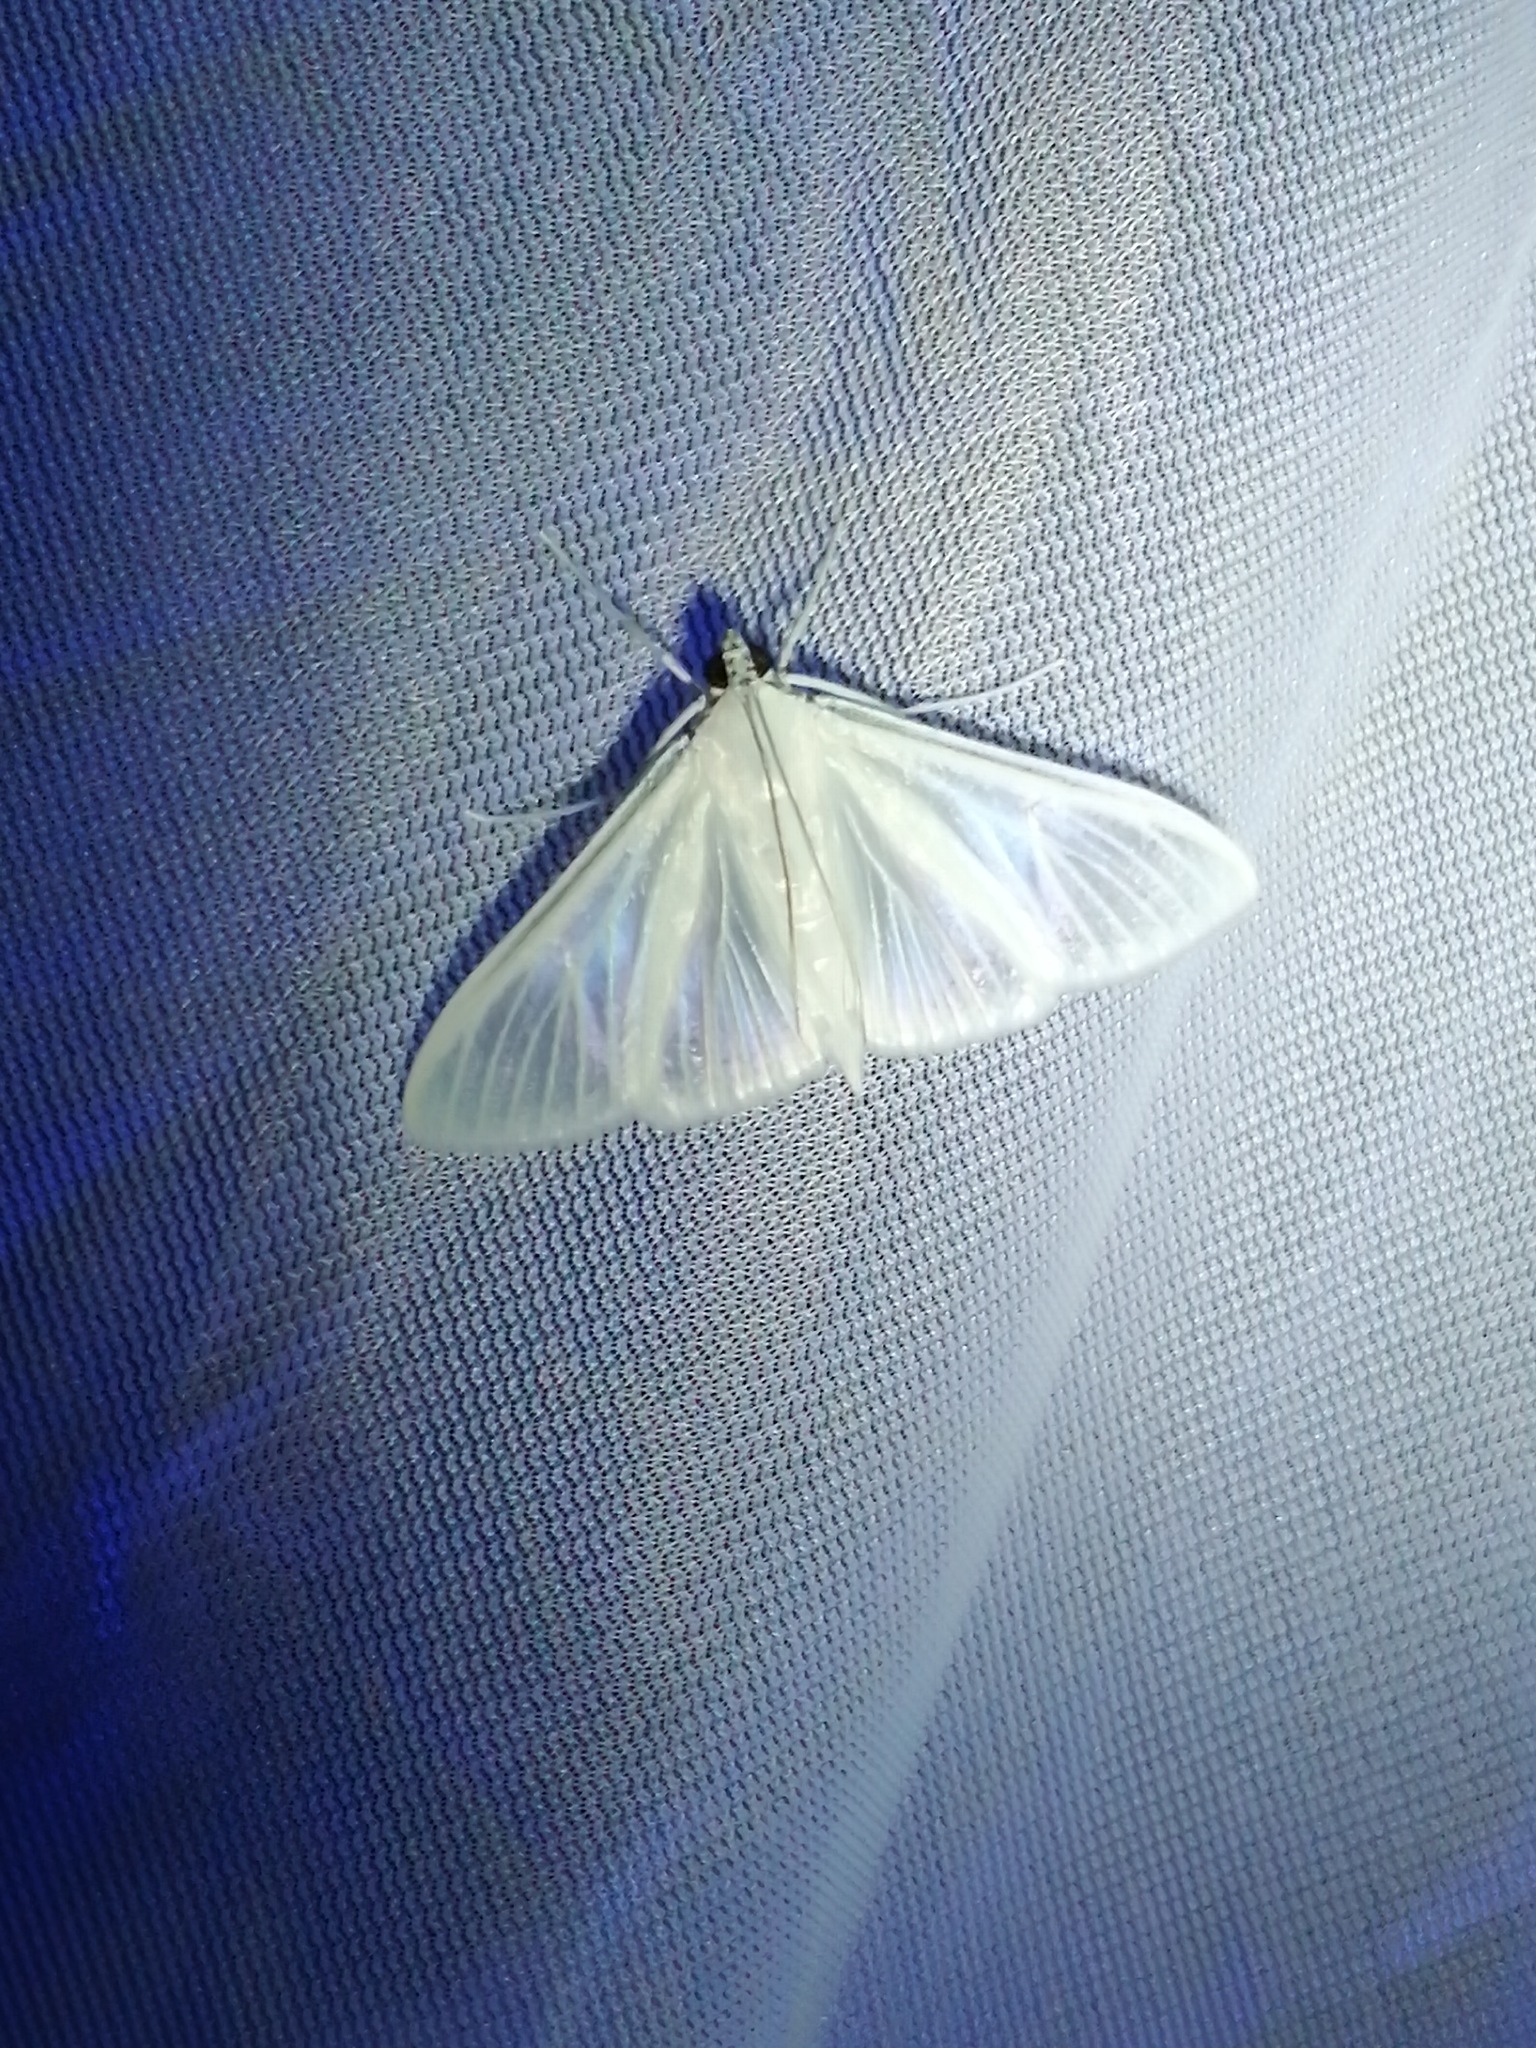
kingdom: Animalia
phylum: Arthropoda
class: Insecta
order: Lepidoptera
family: Crambidae
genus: Palpita
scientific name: Palpita flegia
